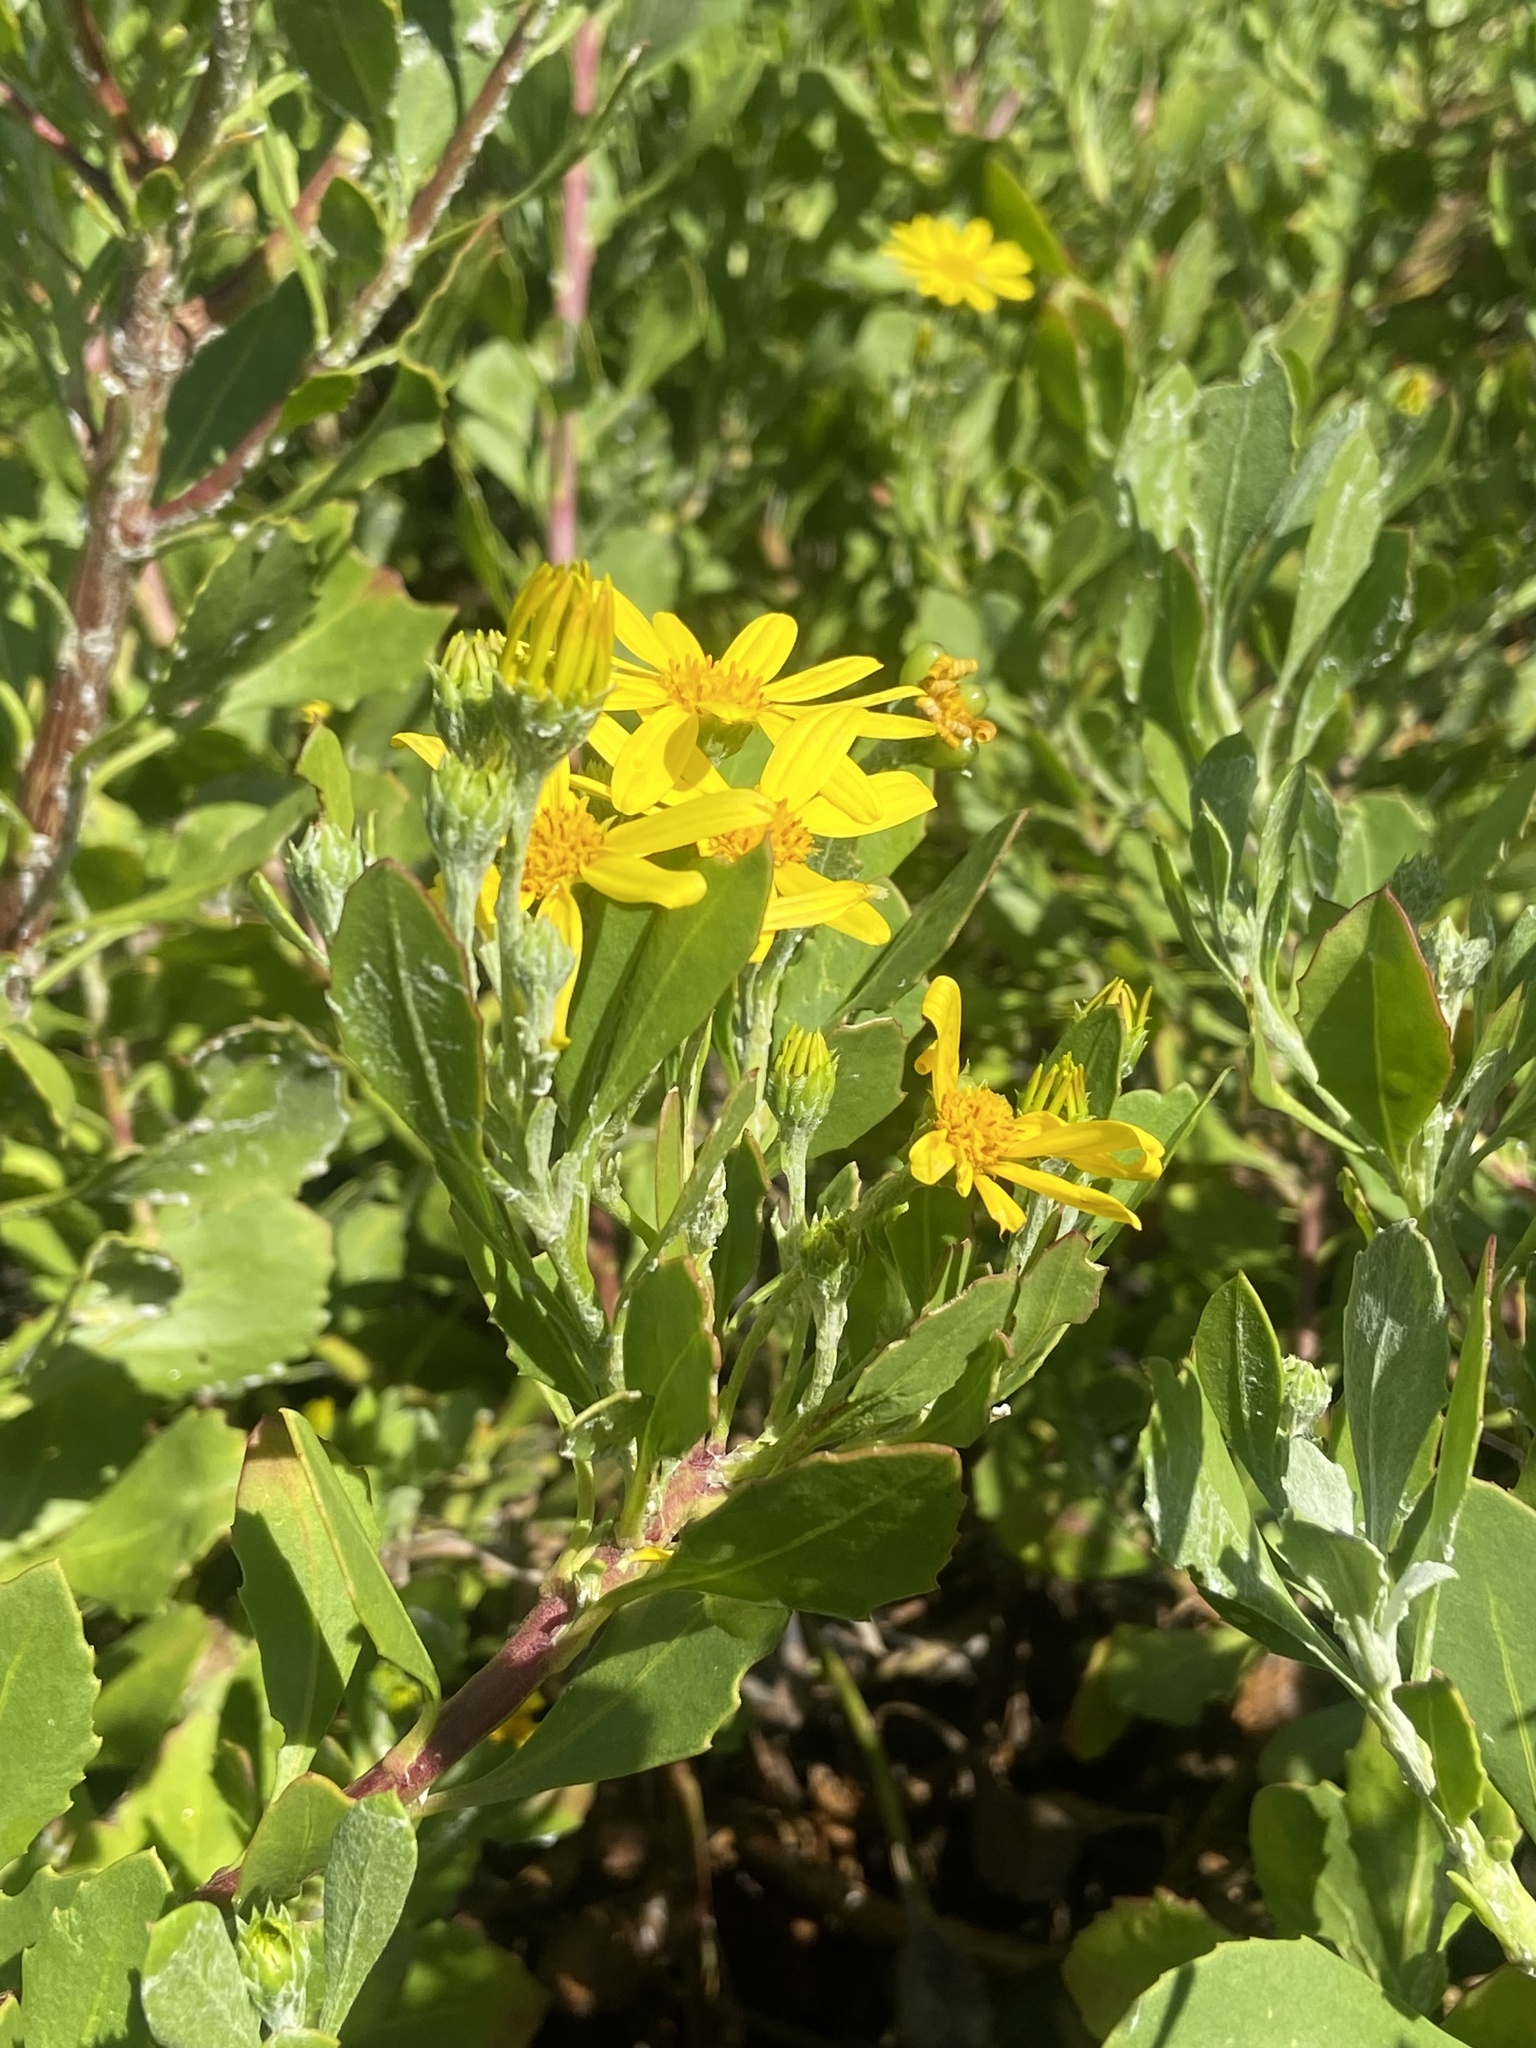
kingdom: Plantae
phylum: Tracheophyta
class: Magnoliopsida
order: Asterales
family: Asteraceae
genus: Osteospermum
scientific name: Osteospermum moniliferum
